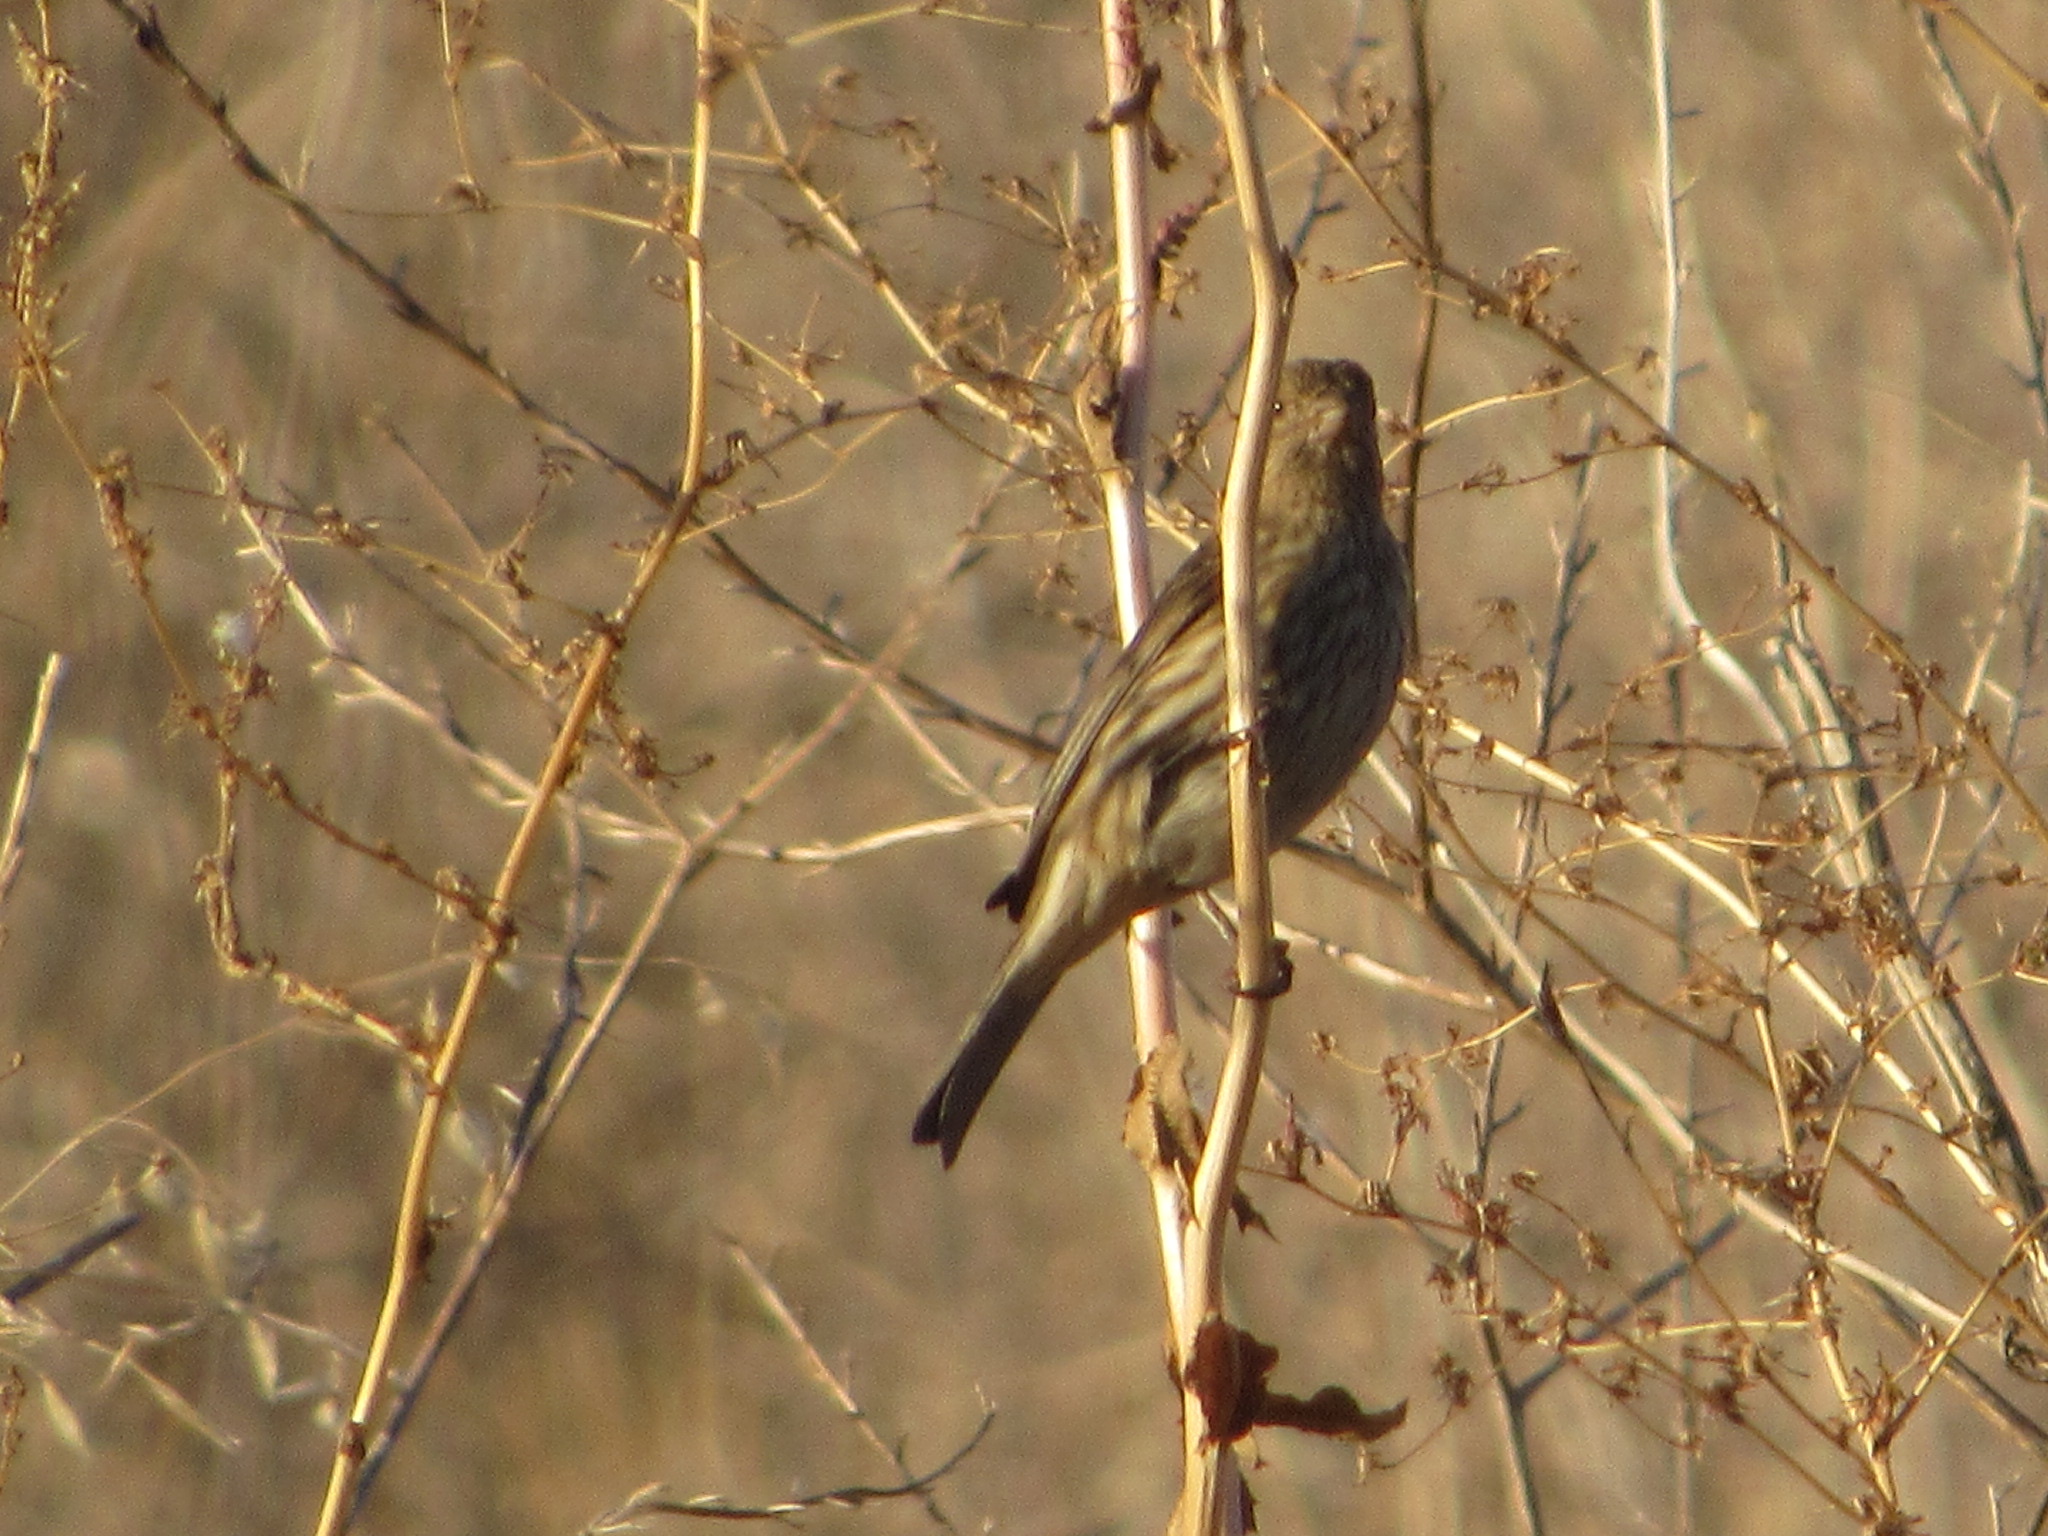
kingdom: Animalia
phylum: Chordata
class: Aves
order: Passeriformes
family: Fringillidae
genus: Haemorhous
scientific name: Haemorhous mexicanus
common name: House finch
